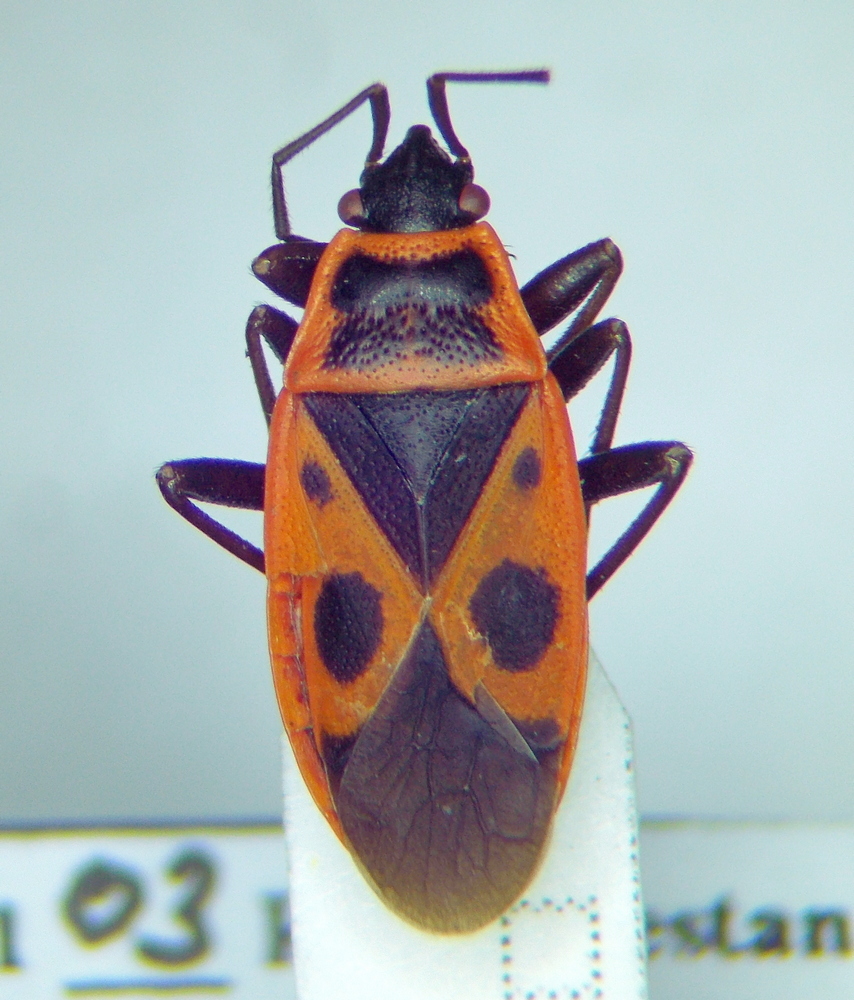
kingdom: Animalia
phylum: Arthropoda
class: Insecta
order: Hemiptera
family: Pyrrhocoridae
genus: Pyrrhocoris
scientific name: Pyrrhocoris apterus
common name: Firebug
